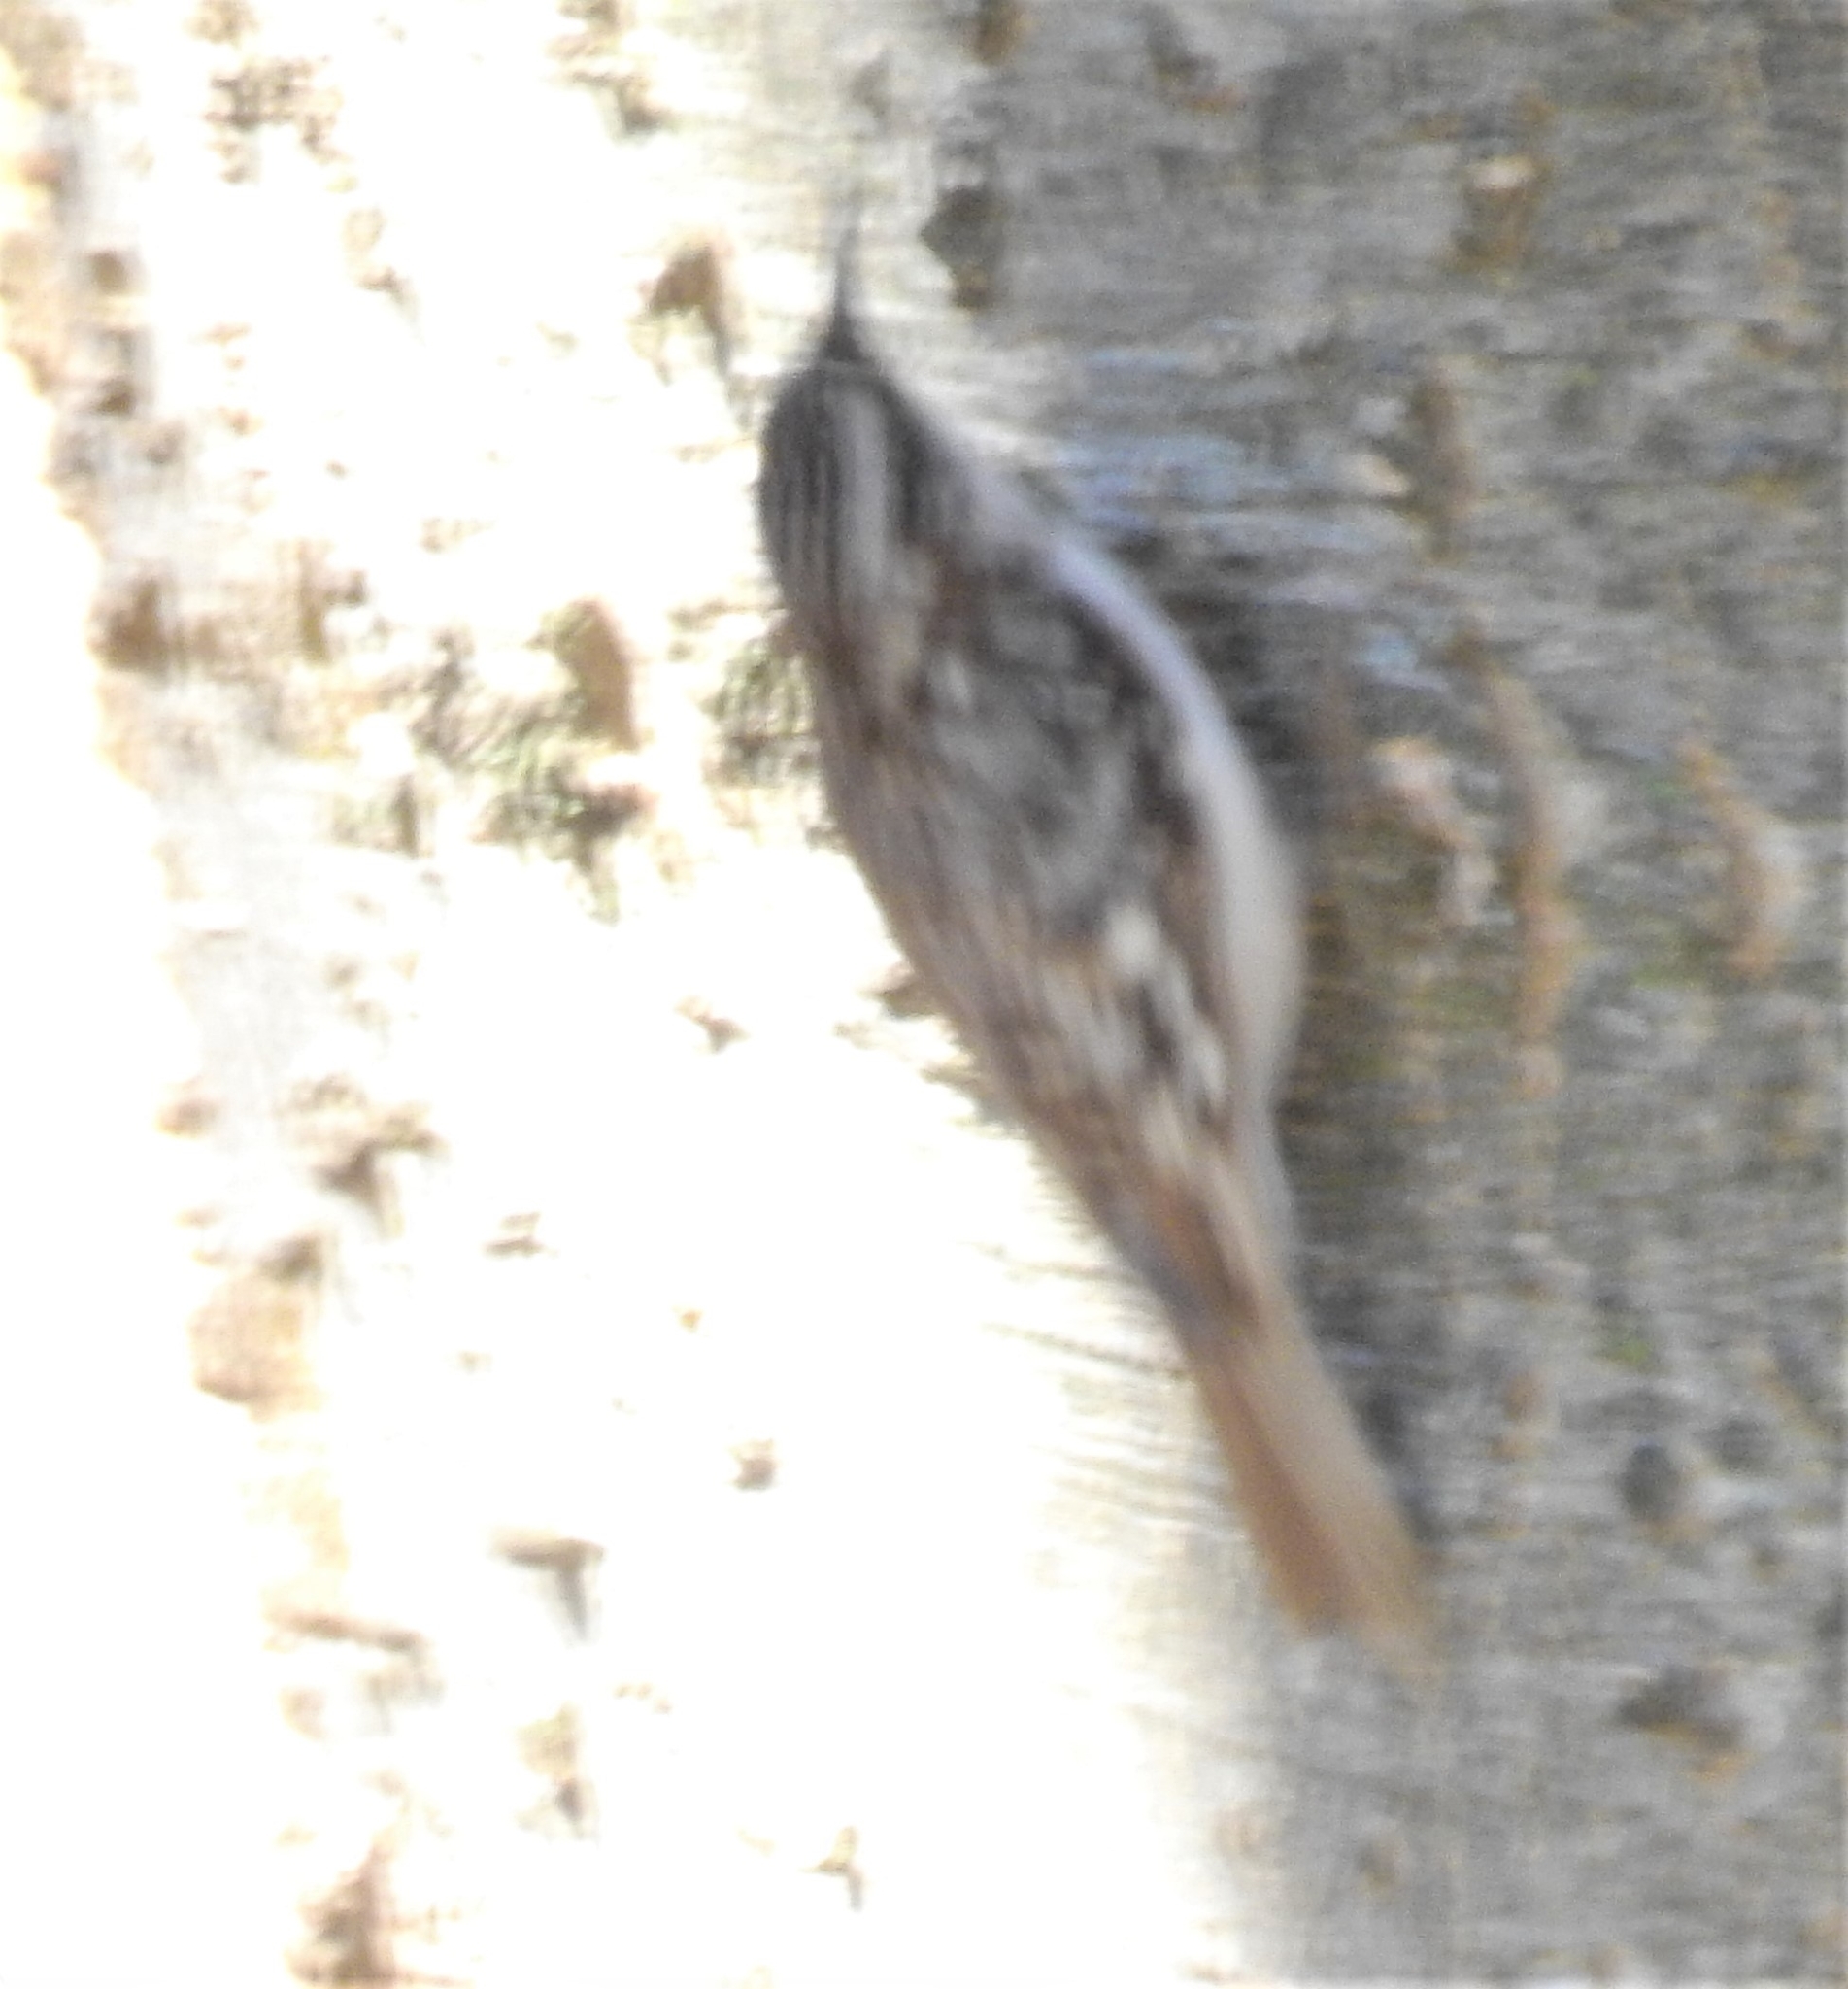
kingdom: Animalia
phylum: Chordata
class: Aves
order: Passeriformes
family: Certhiidae
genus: Certhia
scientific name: Certhia americana
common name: Brown creeper
